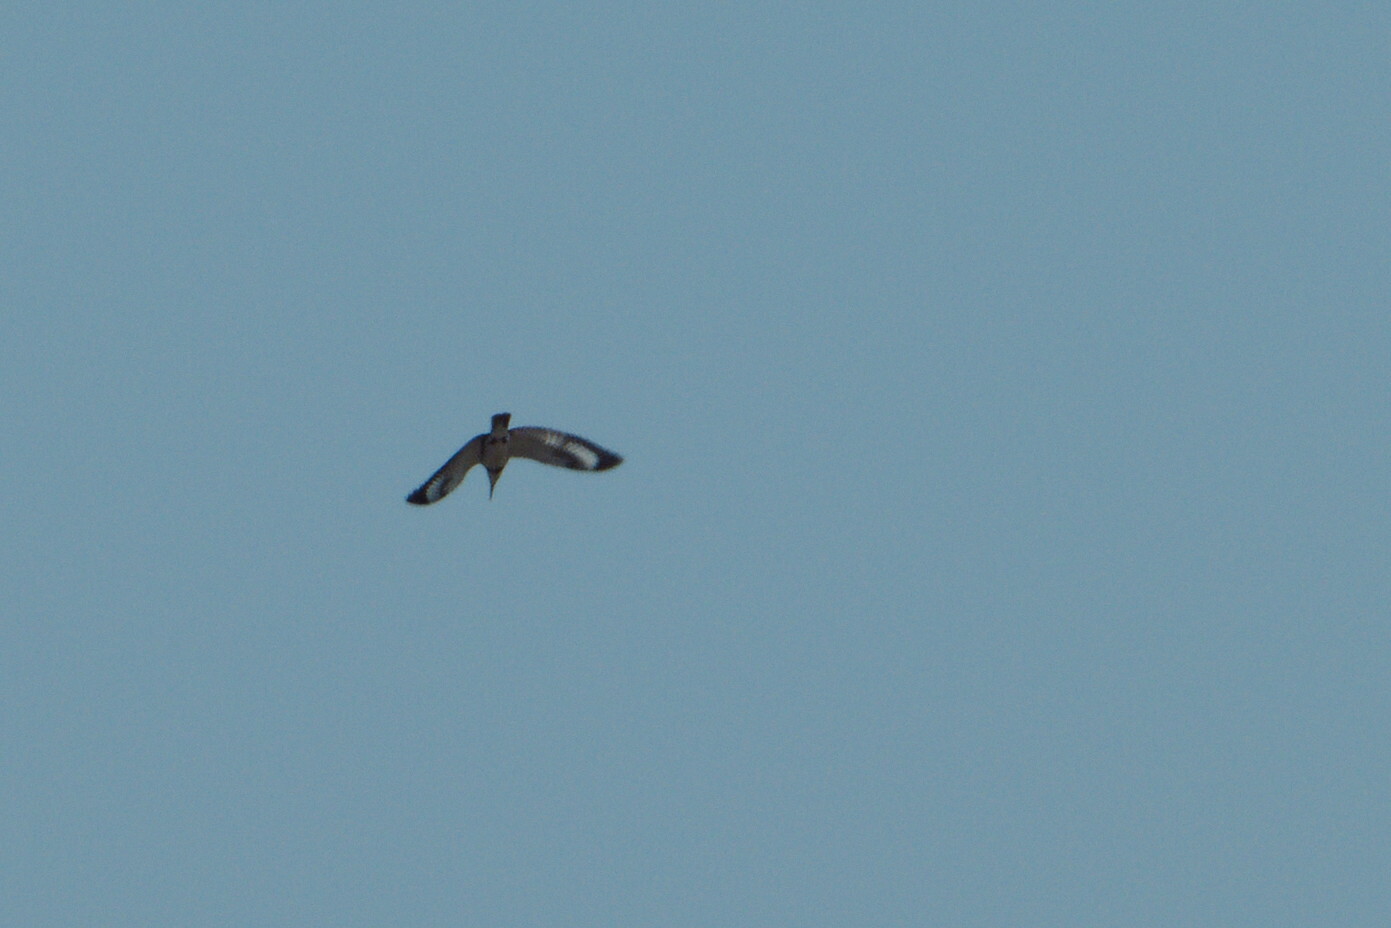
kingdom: Animalia
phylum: Chordata
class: Aves
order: Coraciiformes
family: Alcedinidae
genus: Megaceryle
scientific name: Megaceryle alcyon
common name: Belted kingfisher
